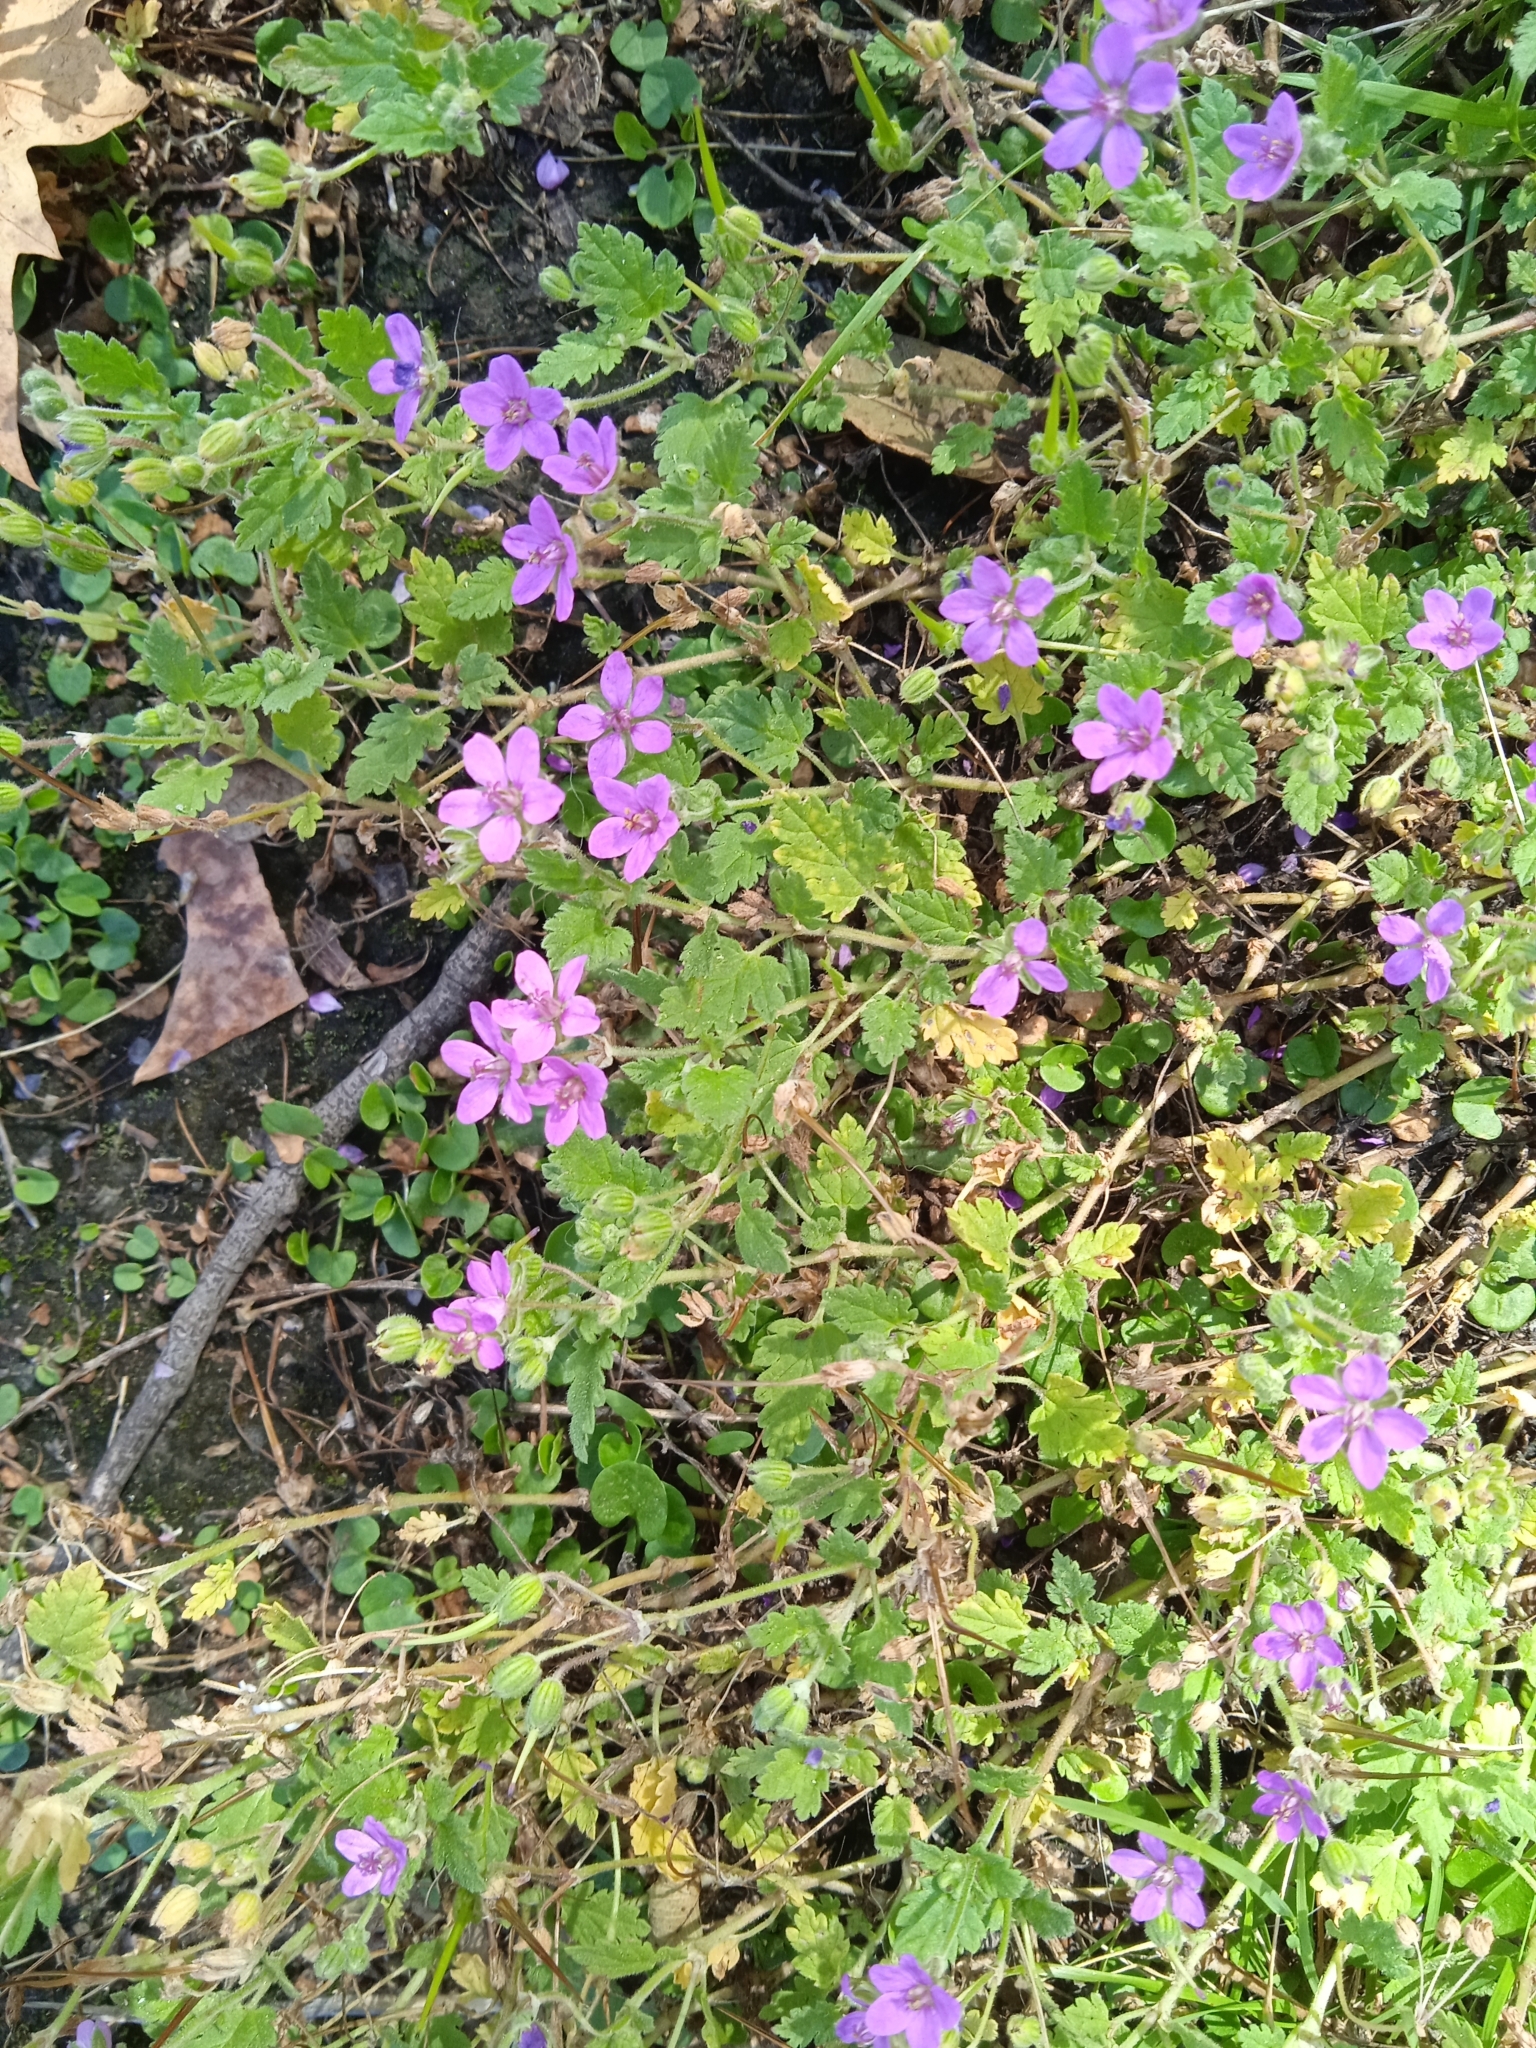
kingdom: Plantae
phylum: Tracheophyta
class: Magnoliopsida
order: Geraniales
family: Geraniaceae
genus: Erodium
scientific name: Erodium malacoides
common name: Soft stork's-bill
